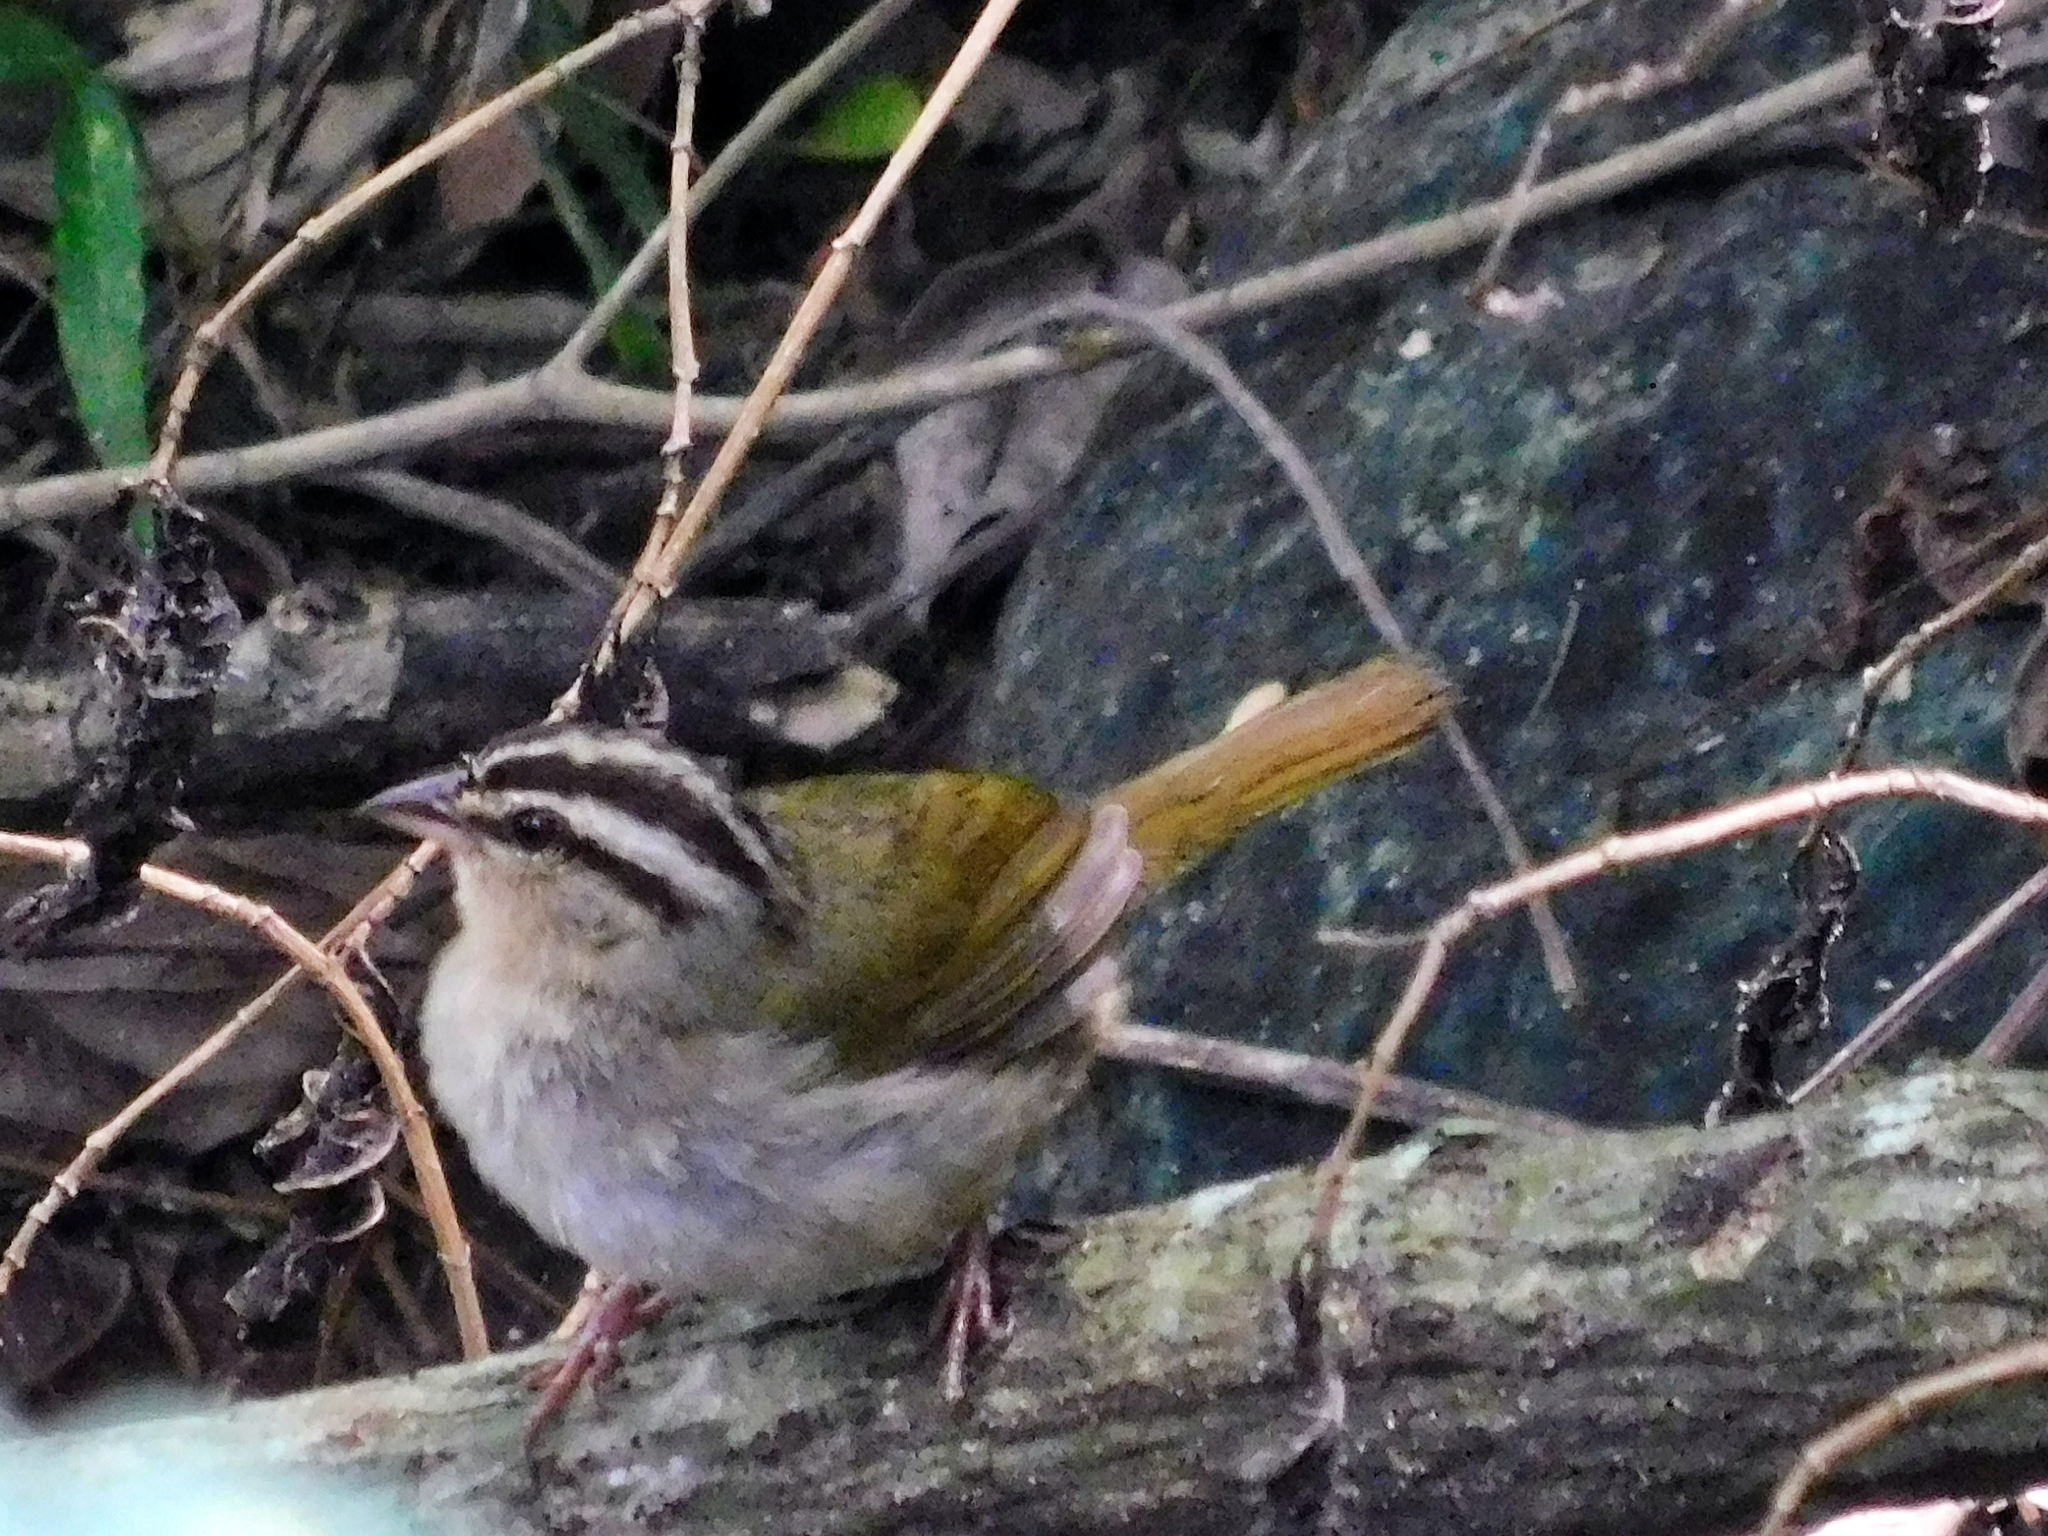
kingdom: Animalia
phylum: Chordata
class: Aves
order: Passeriformes
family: Passerellidae
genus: Arremonops
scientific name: Arremonops rufivirgatus
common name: Olive sparrow
